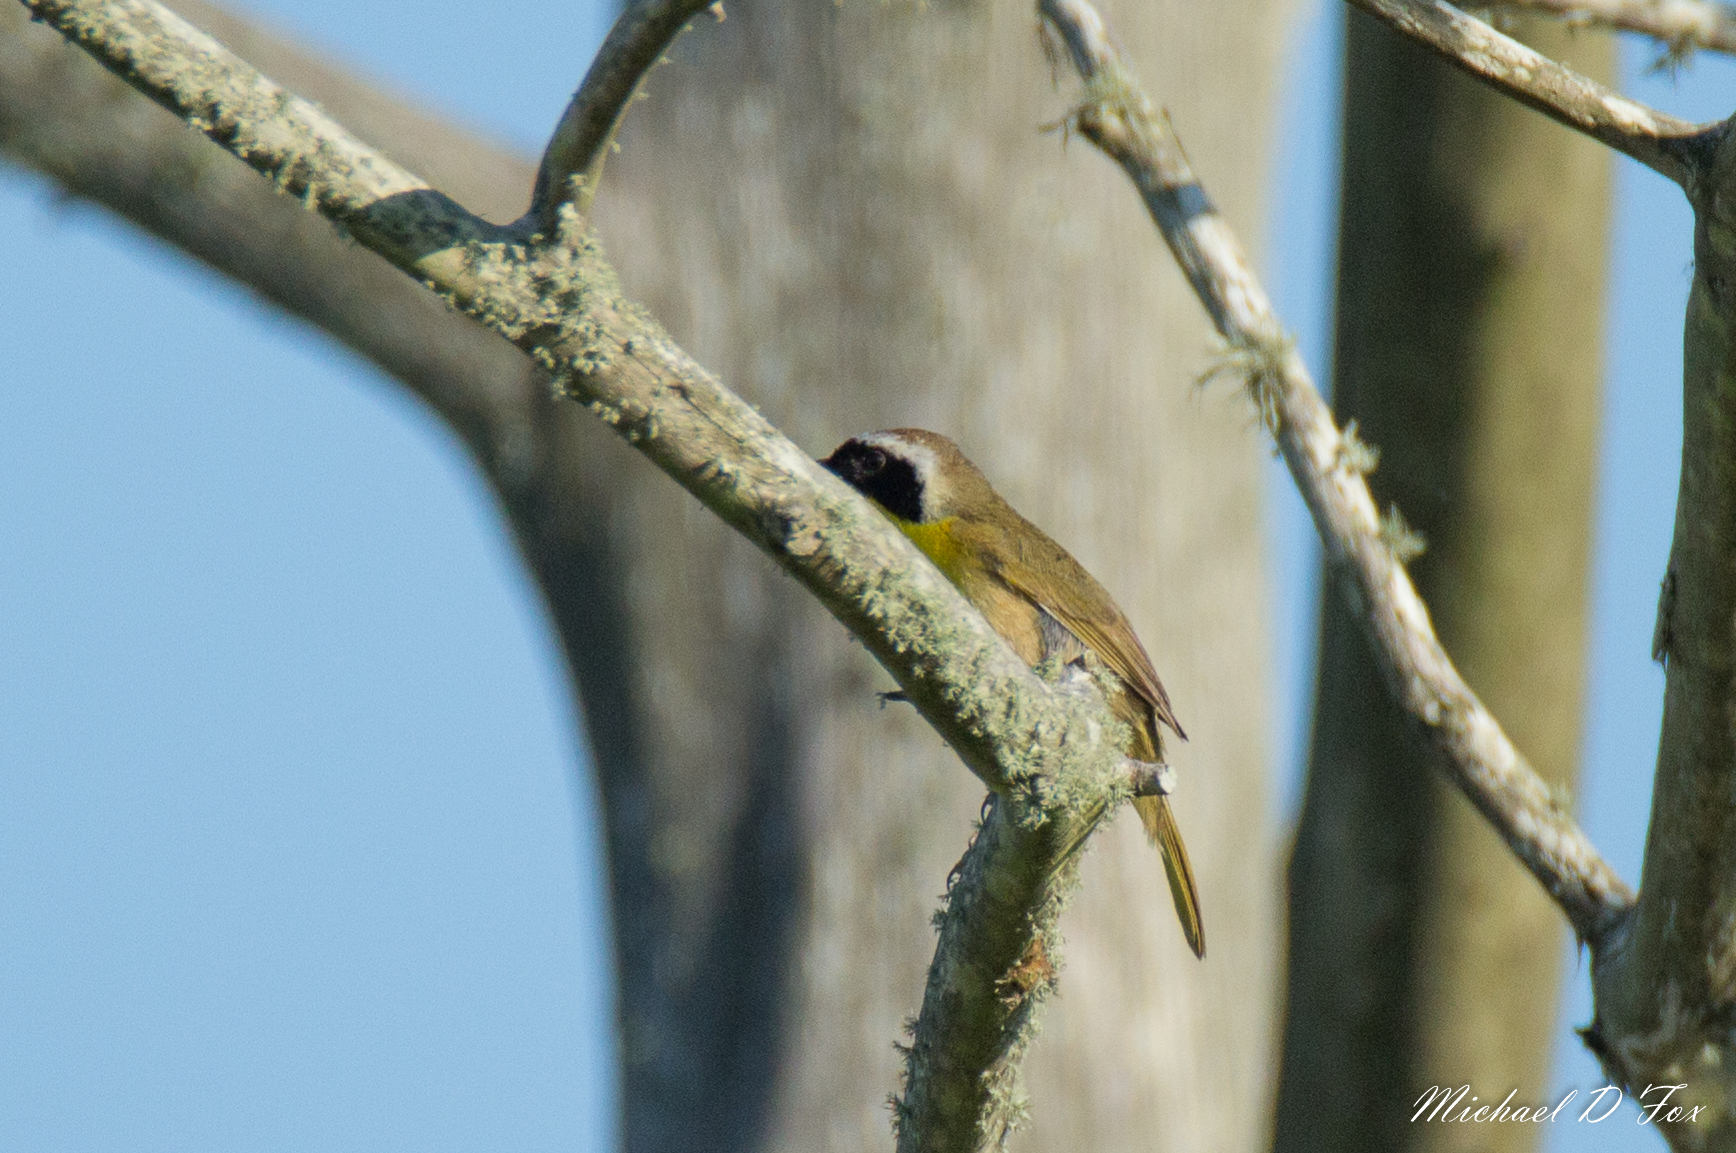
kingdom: Animalia
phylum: Chordata
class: Aves
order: Passeriformes
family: Parulidae
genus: Geothlypis
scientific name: Geothlypis trichas
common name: Common yellowthroat
